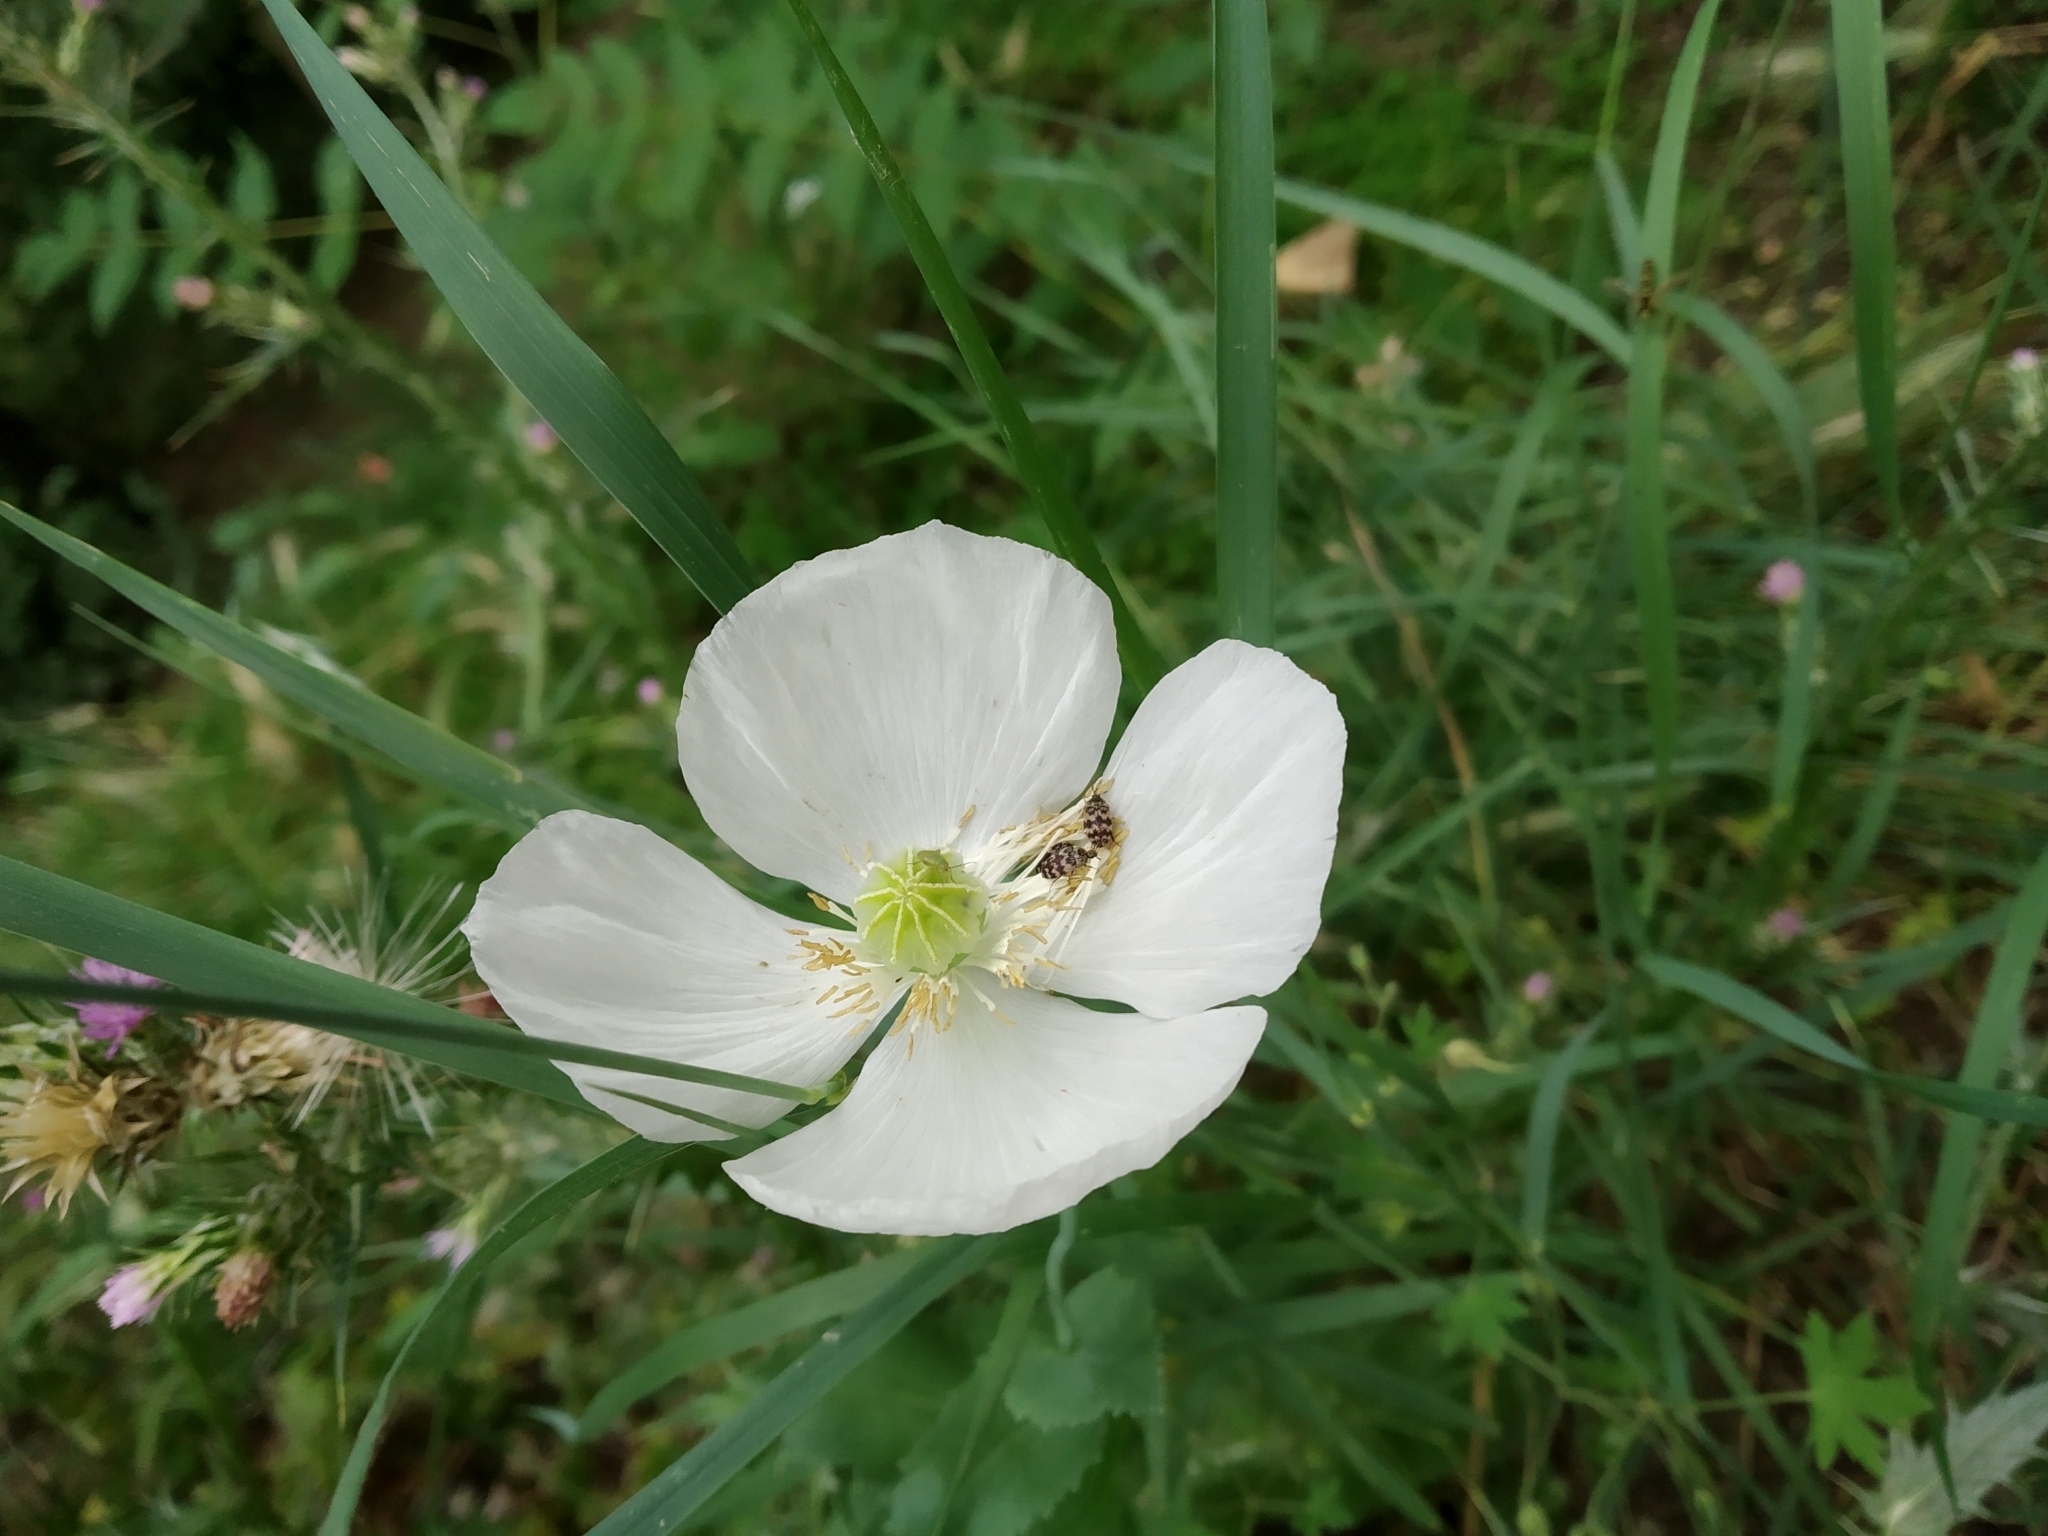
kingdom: Plantae
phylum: Tracheophyta
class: Magnoliopsida
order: Ranunculales
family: Papaveraceae
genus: Papaver
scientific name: Papaver somniferum
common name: Opium poppy
